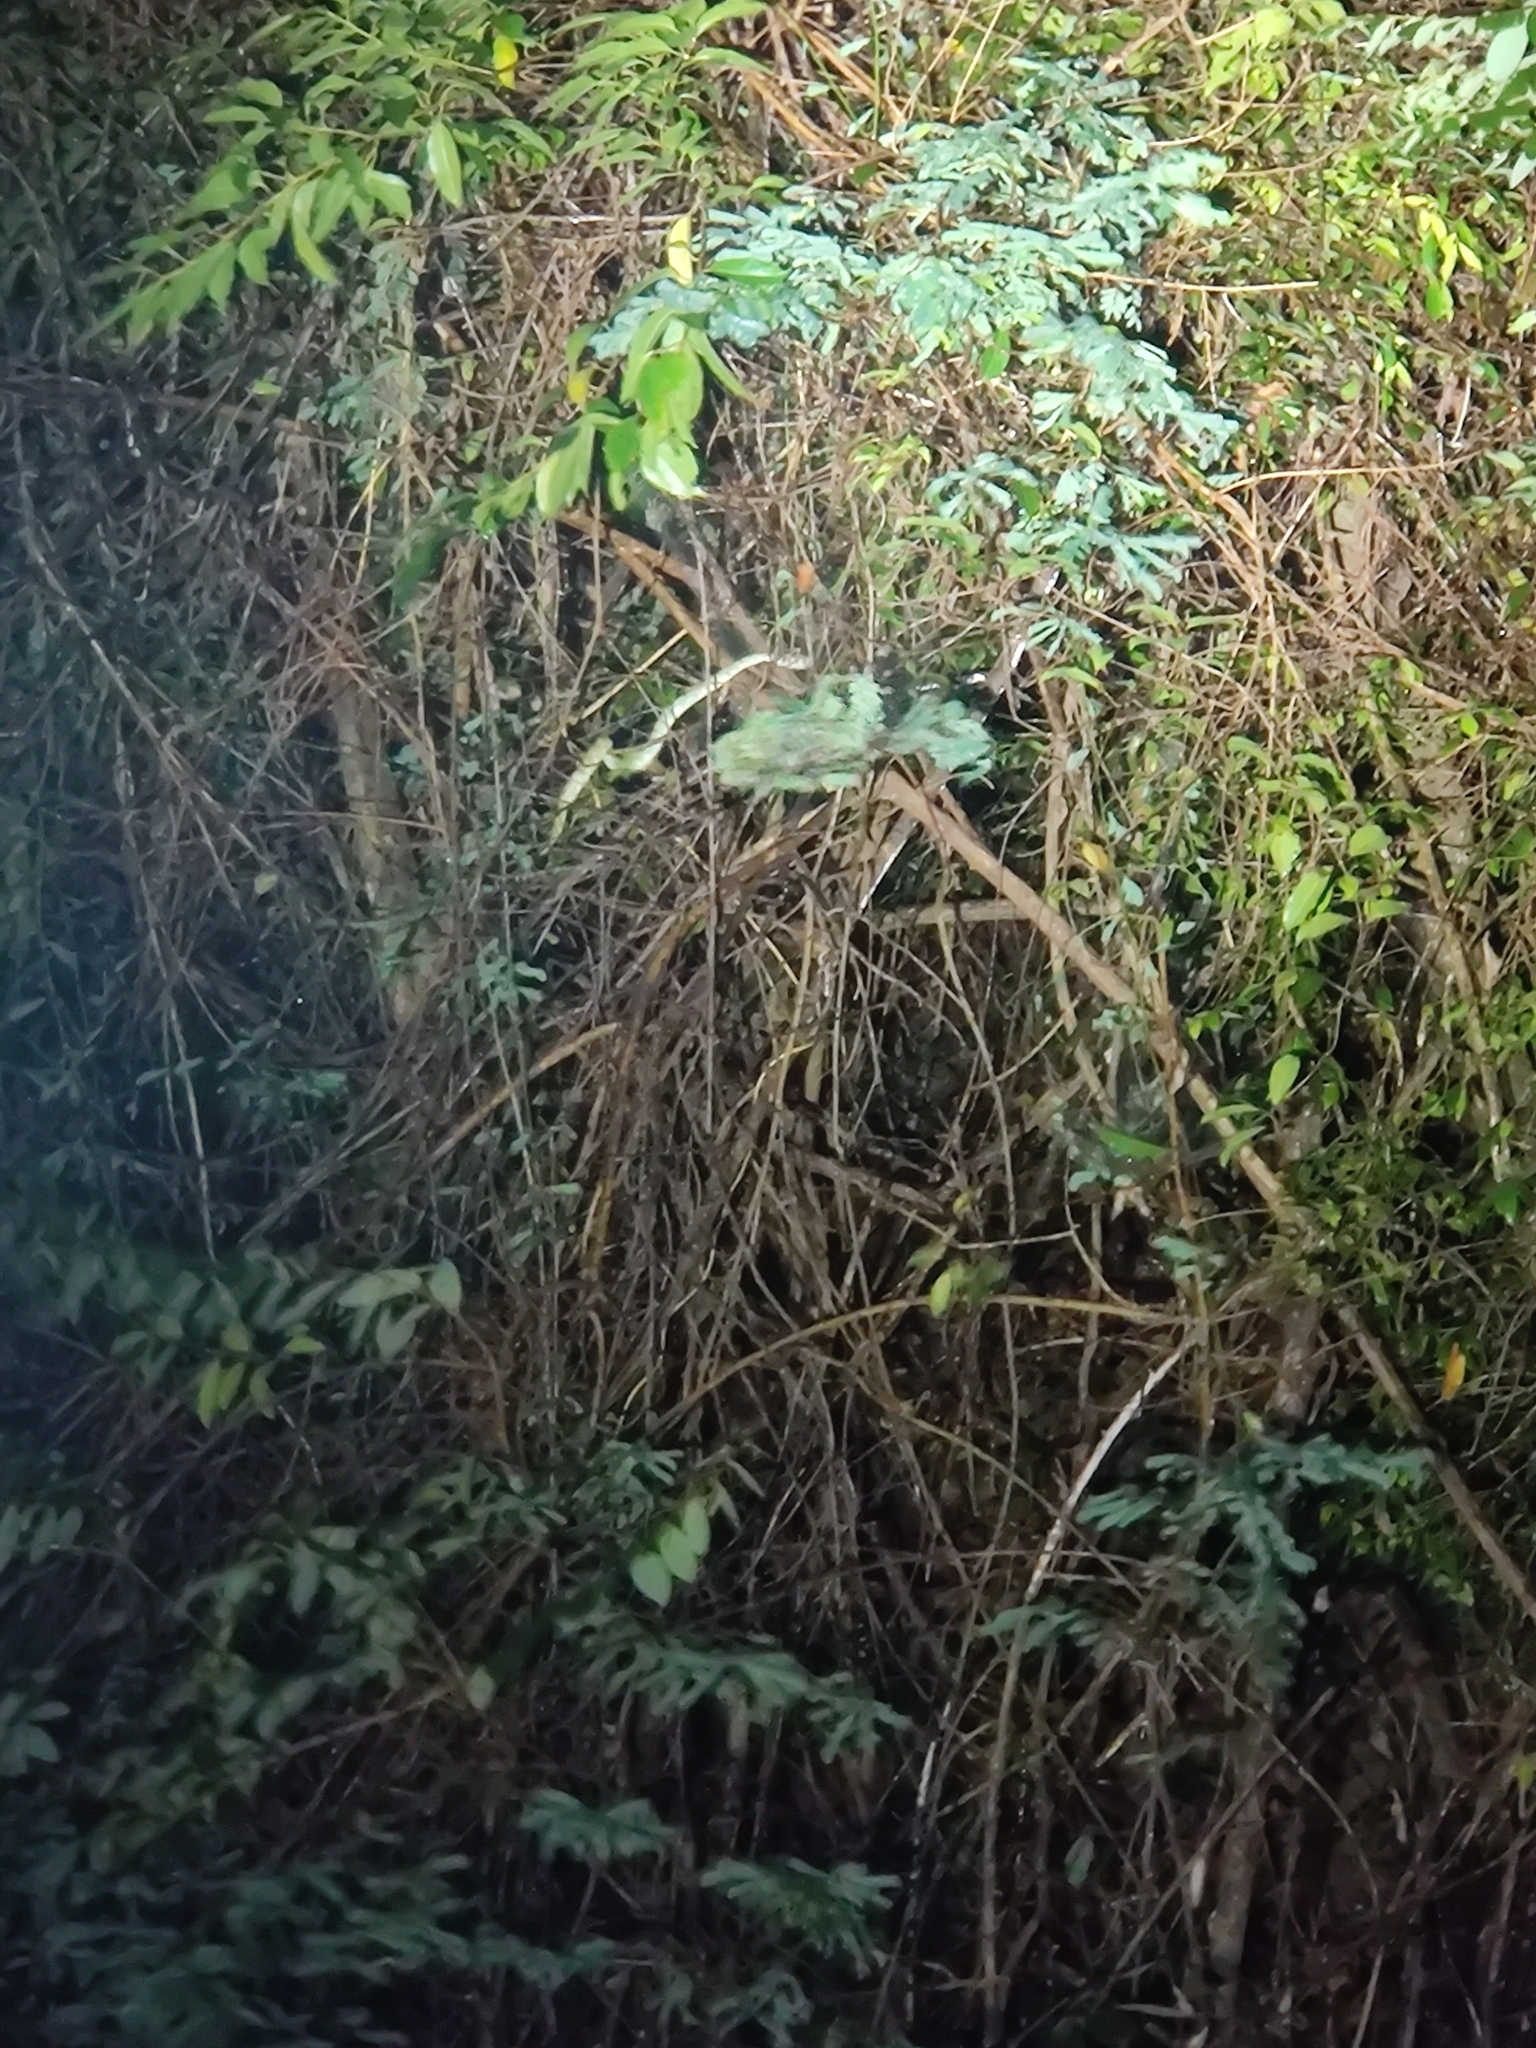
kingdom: Animalia
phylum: Chordata
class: Squamata
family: Viperidae
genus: Craspedocephalus
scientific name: Craspedocephalus travancoricus
